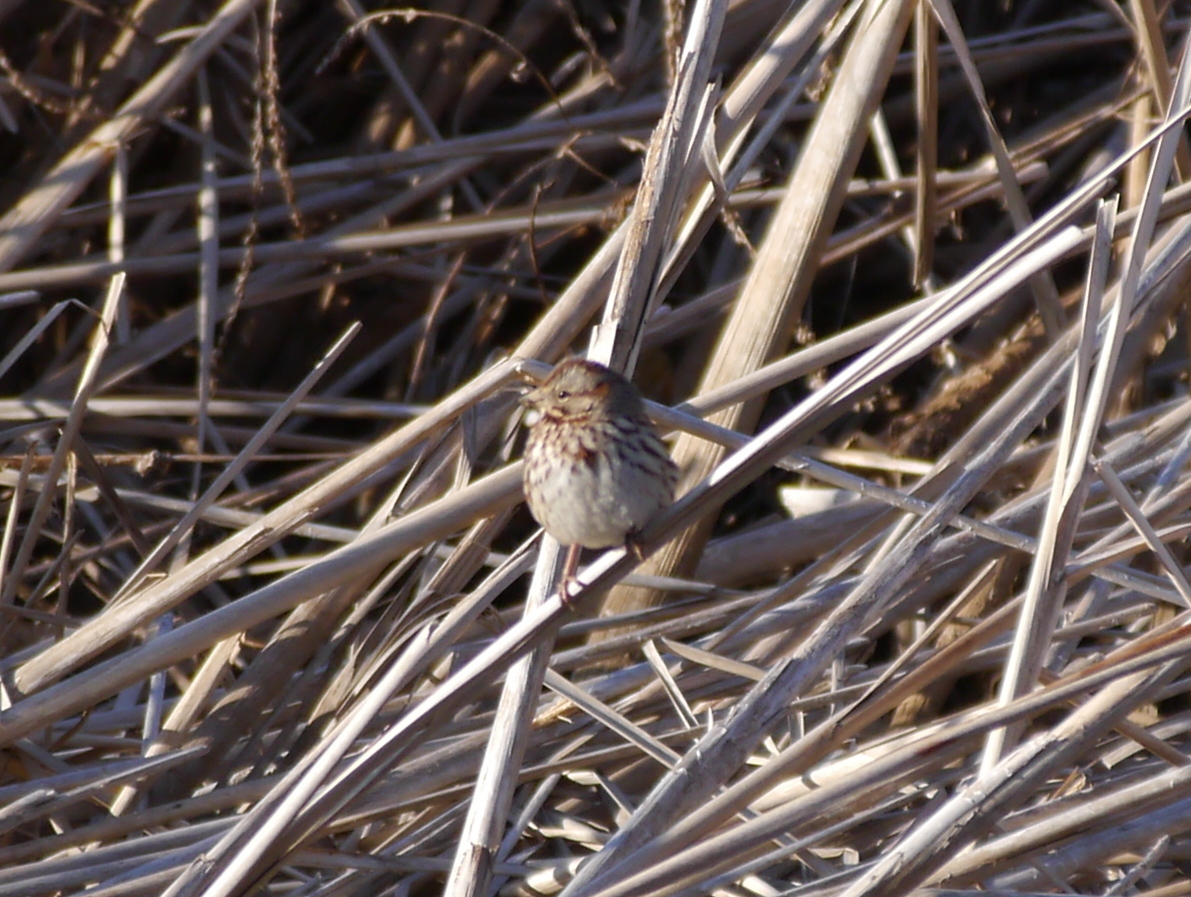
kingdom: Animalia
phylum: Chordata
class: Aves
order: Passeriformes
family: Passerellidae
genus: Melospiza
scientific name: Melospiza melodia
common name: Song sparrow
